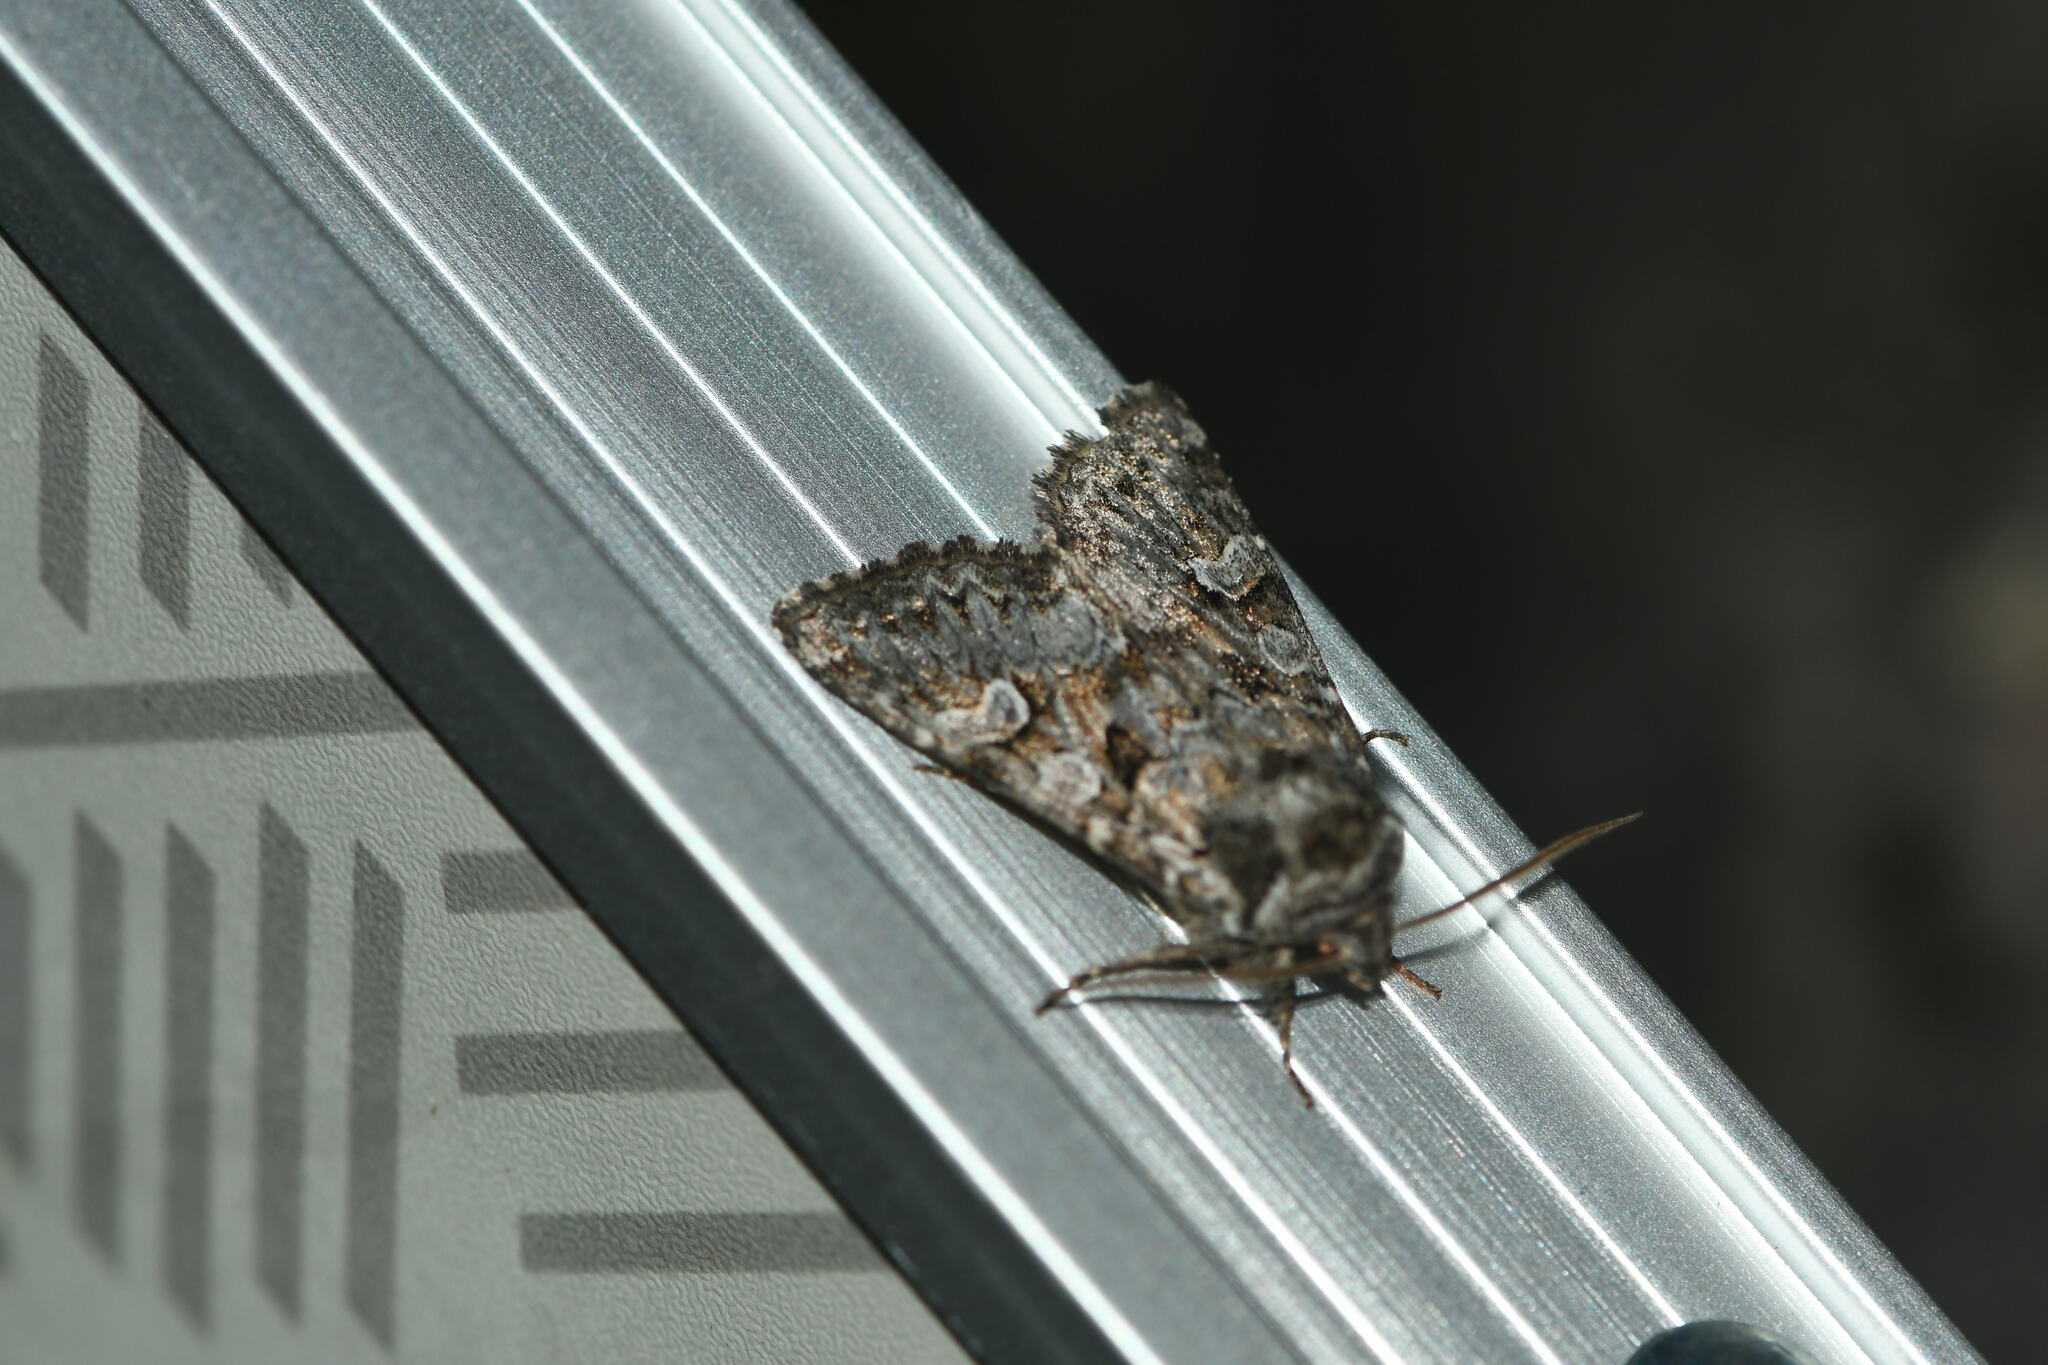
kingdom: Animalia
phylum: Arthropoda
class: Insecta
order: Lepidoptera
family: Noctuidae
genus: Pachetra
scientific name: Pachetra sagittigera
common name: Feathered ear
